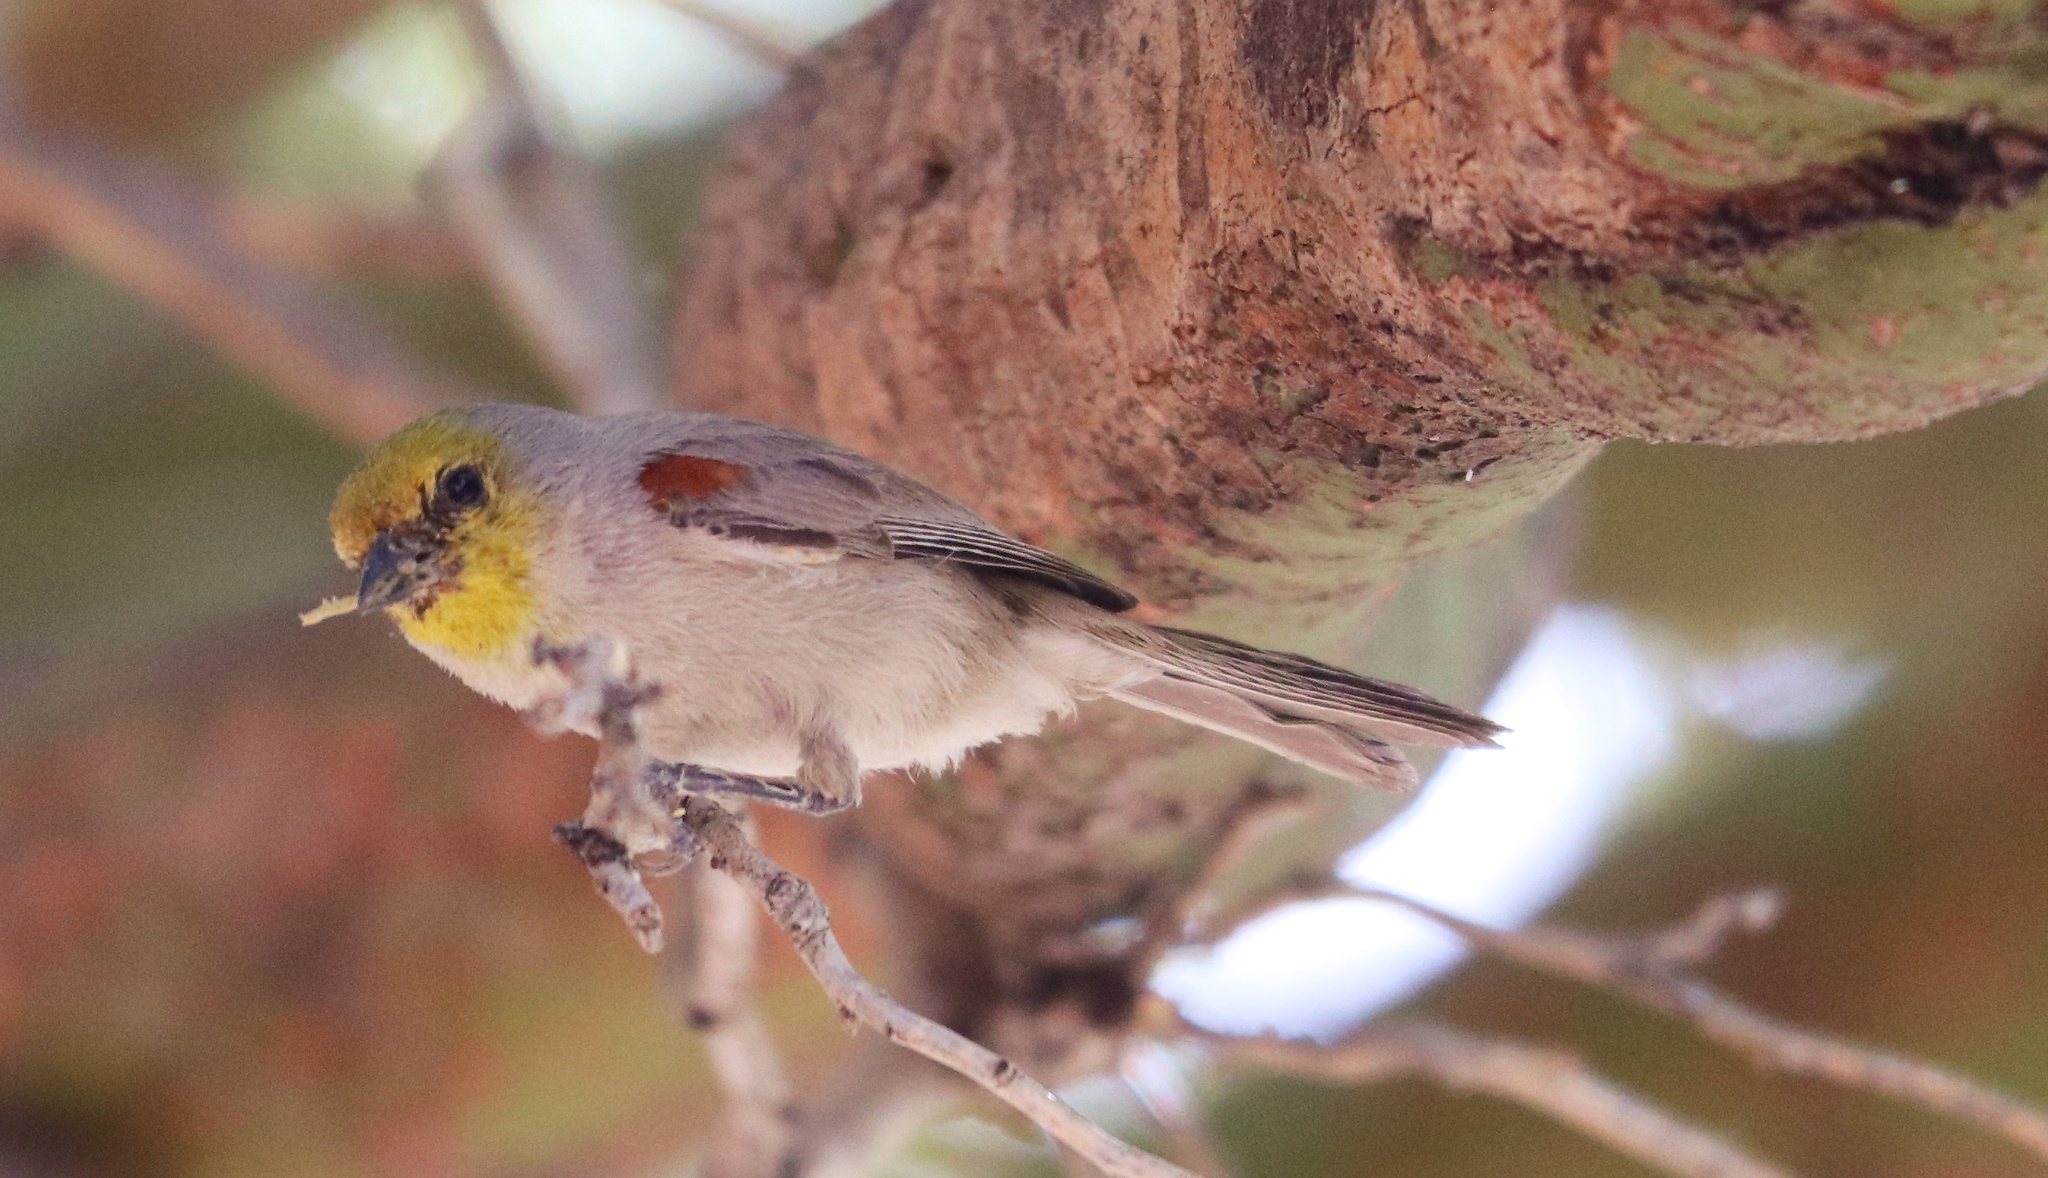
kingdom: Animalia
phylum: Chordata
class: Aves
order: Passeriformes
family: Remizidae
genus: Auriparus
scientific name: Auriparus flaviceps
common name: Verdin
